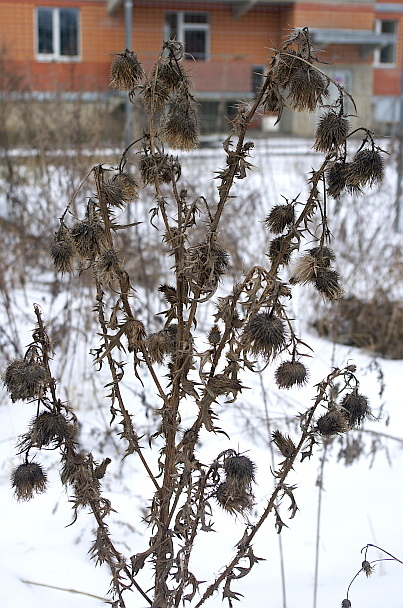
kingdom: Plantae
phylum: Tracheophyta
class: Magnoliopsida
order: Asterales
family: Asteraceae
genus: Cirsium
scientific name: Cirsium vulgare
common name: Bull thistle
